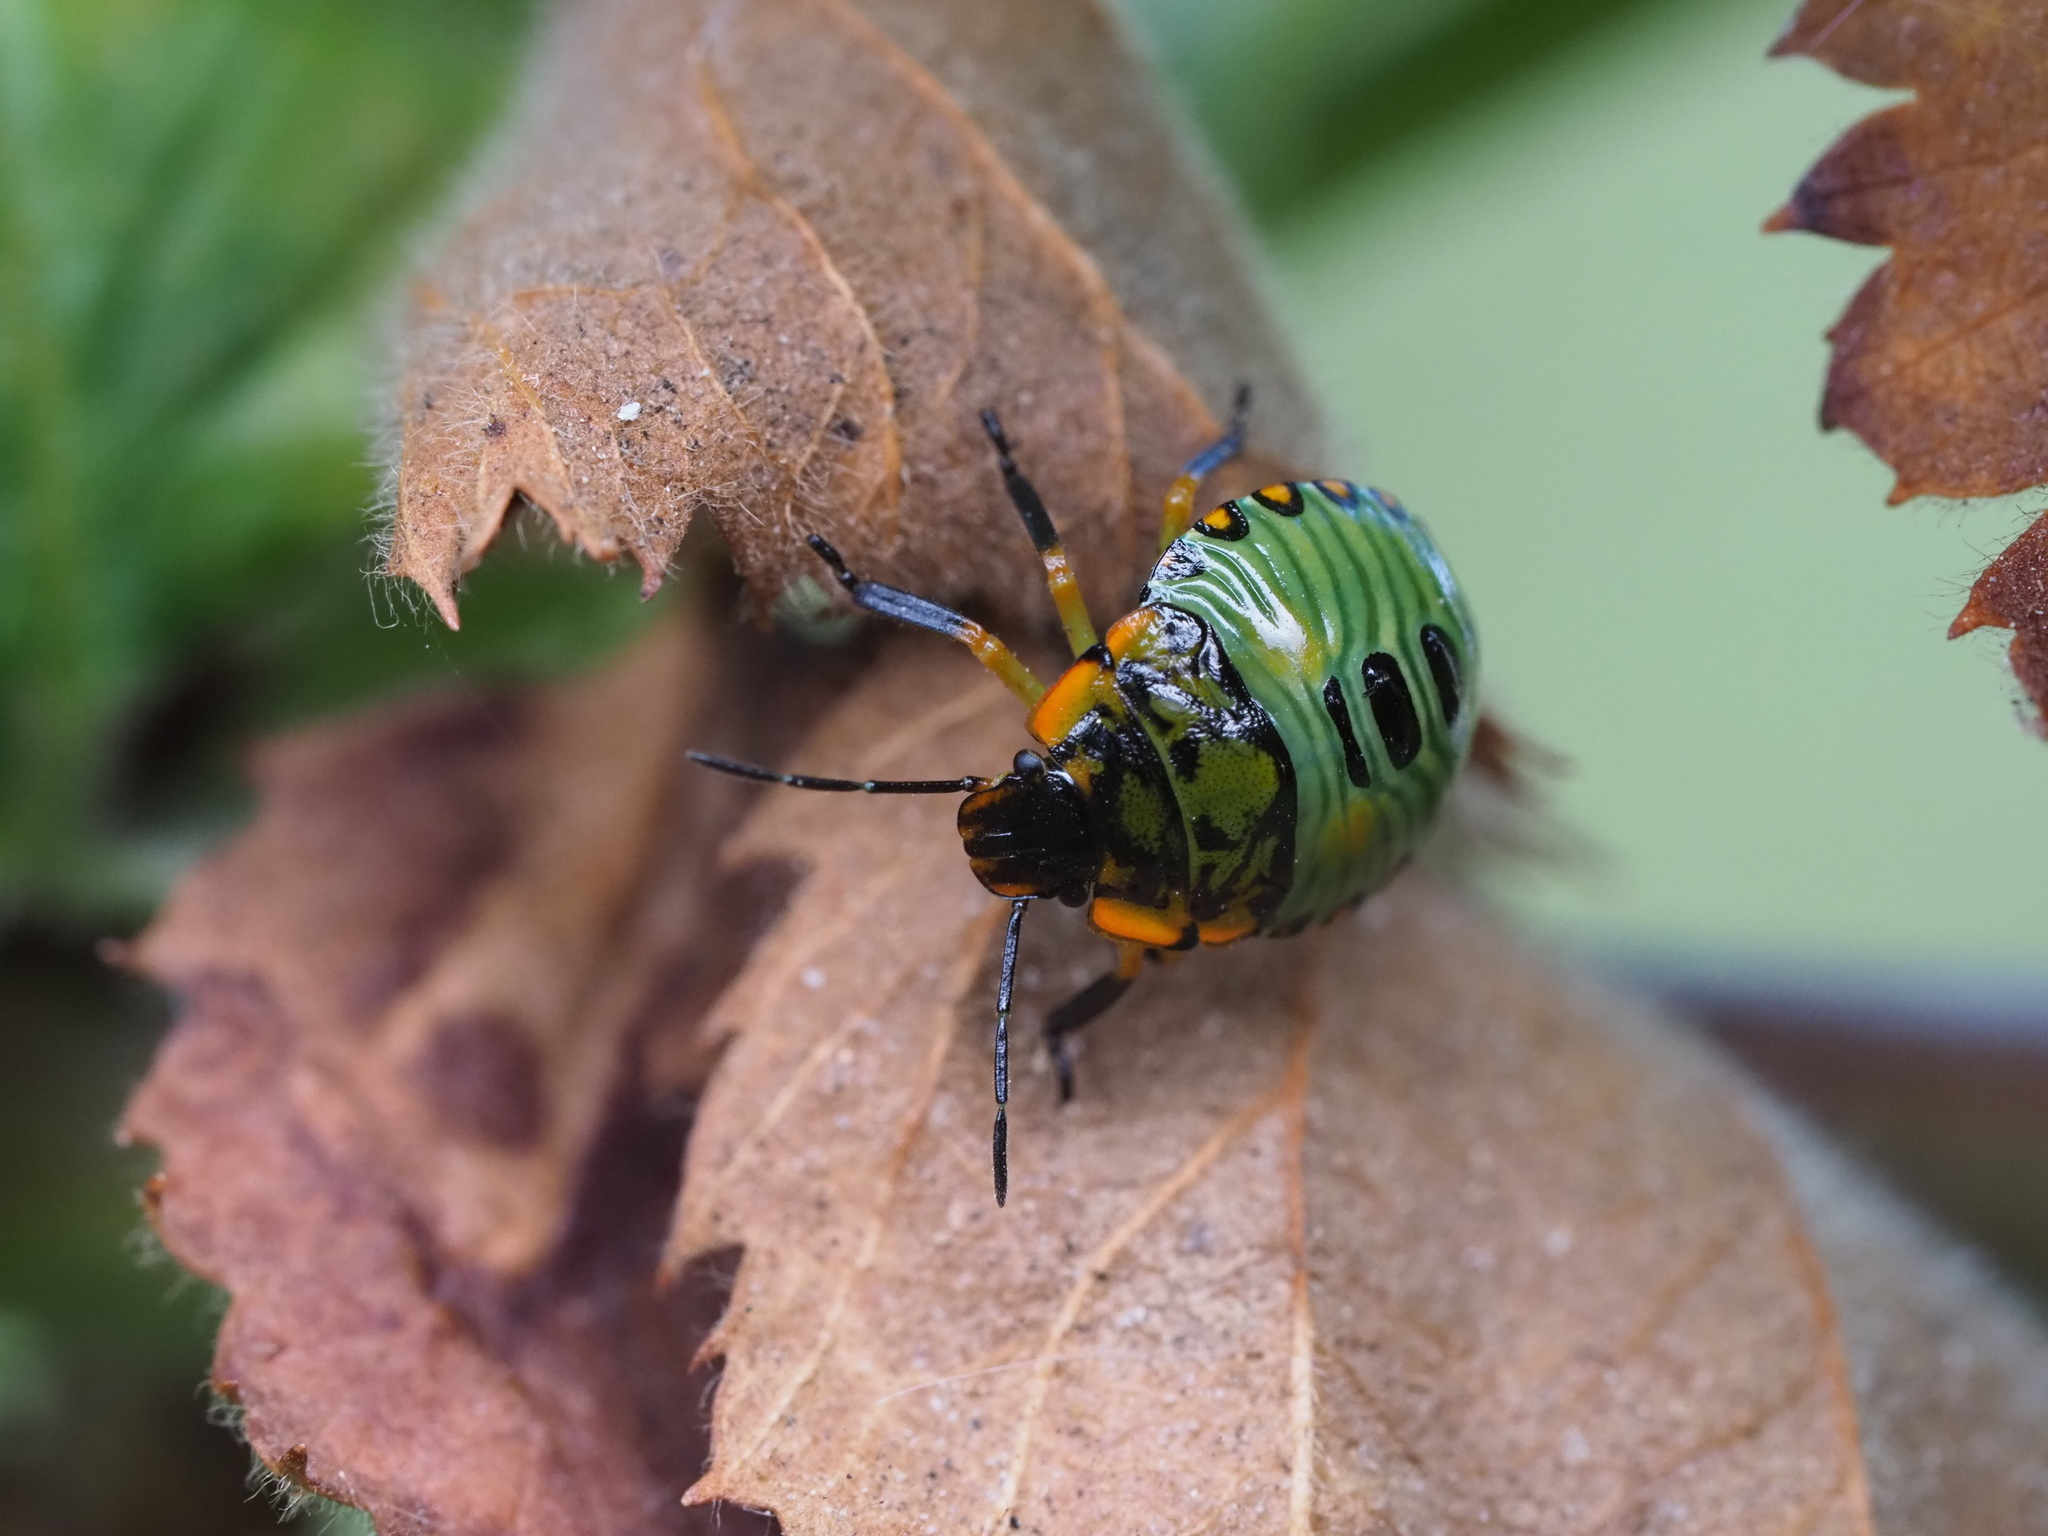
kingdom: Animalia
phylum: Arthropoda
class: Insecta
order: Hemiptera
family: Pentatomidae
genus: Chinavia
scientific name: Chinavia hilaris
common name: Green stink bug
